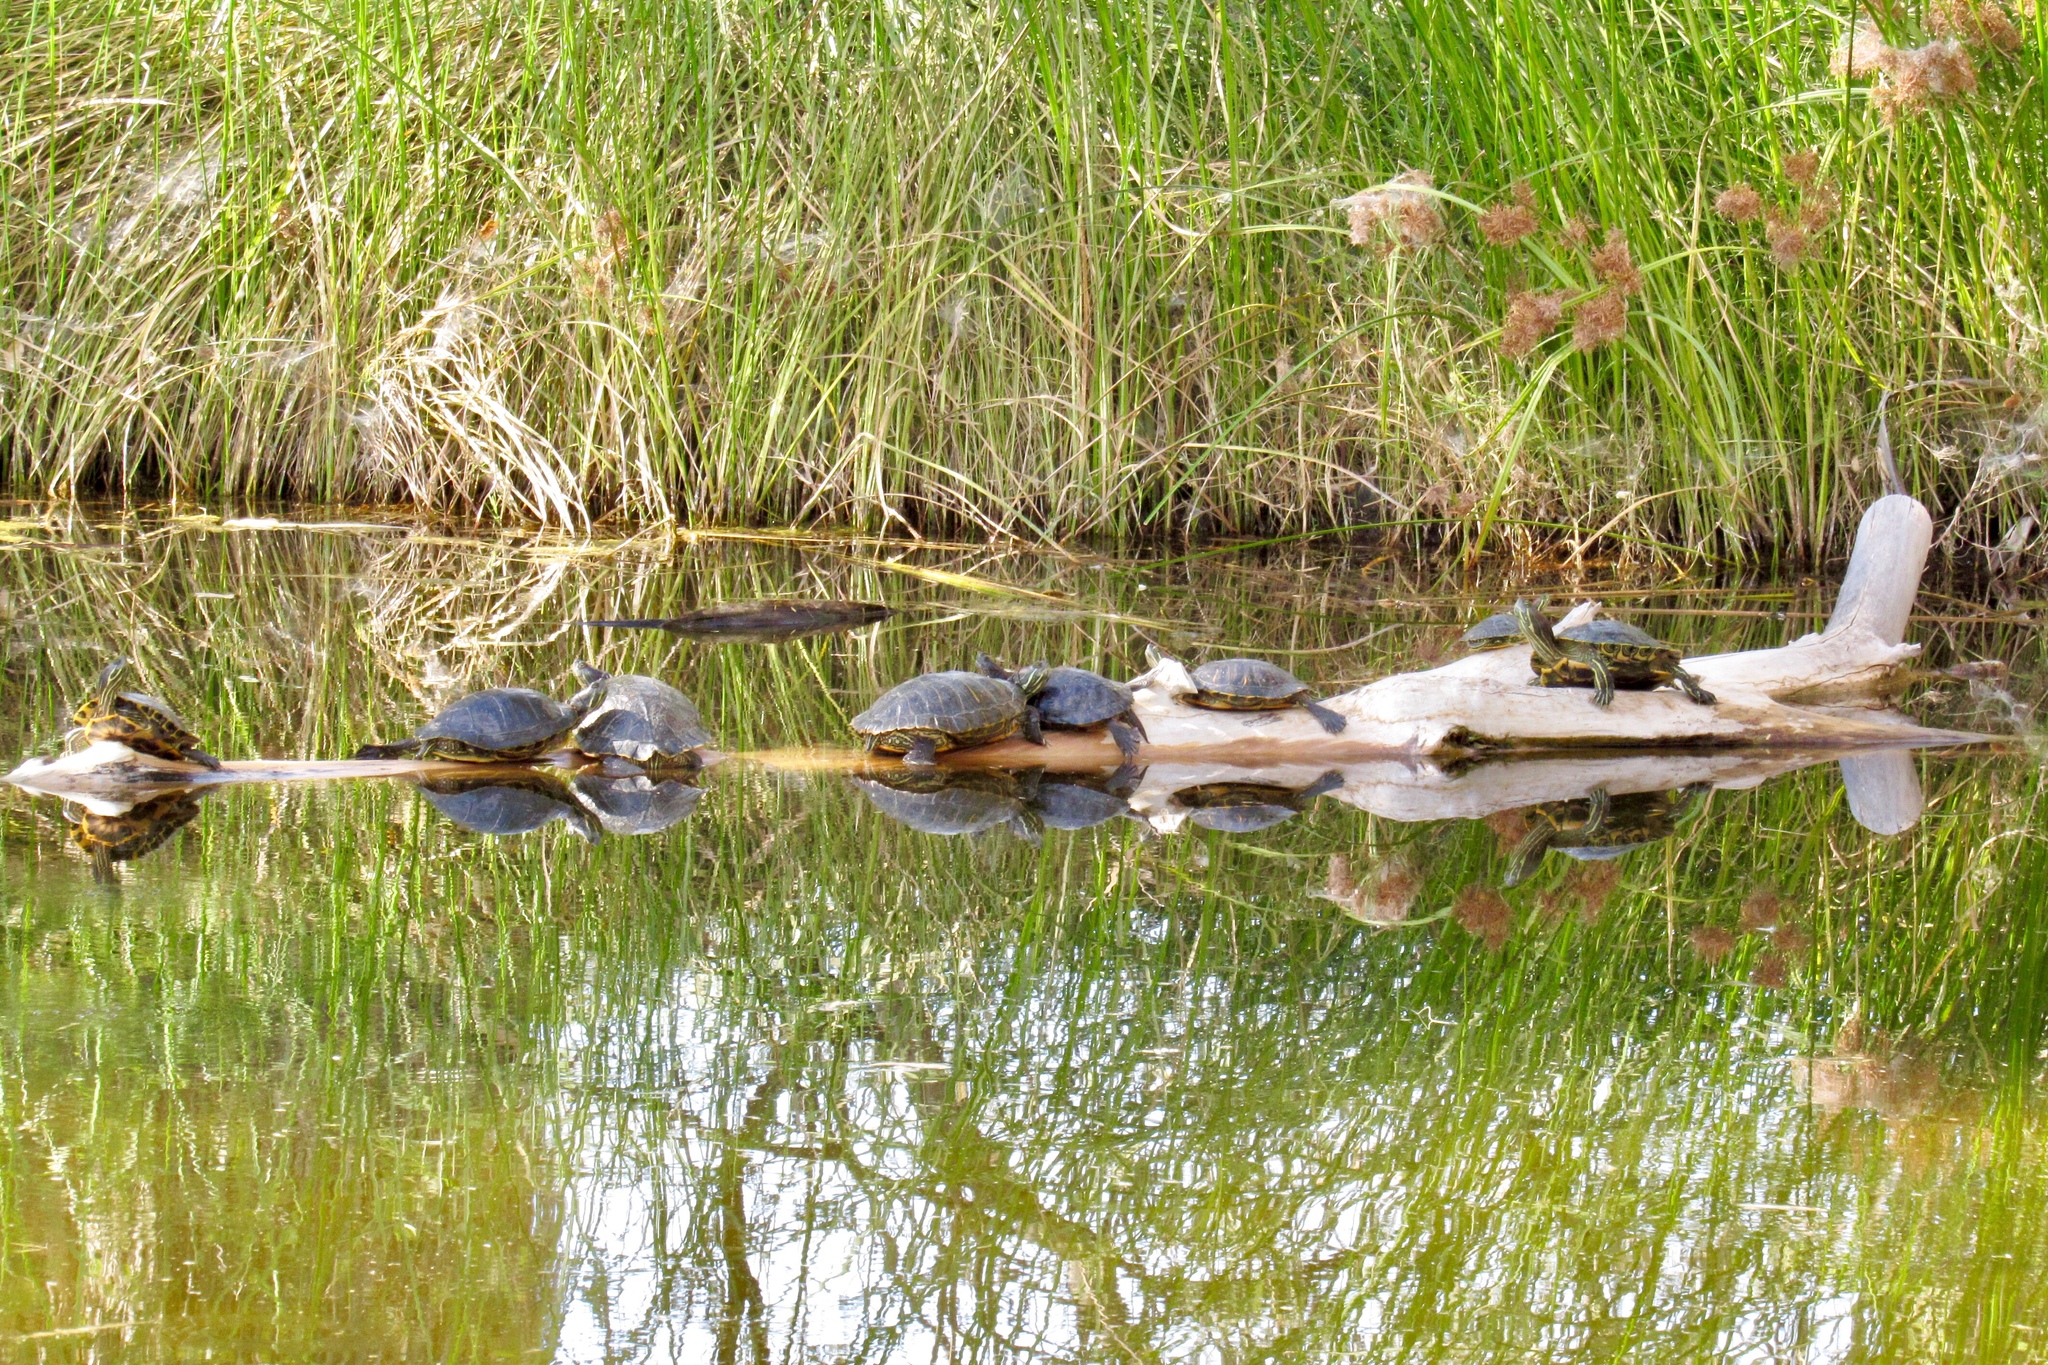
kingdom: Animalia
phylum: Chordata
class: Testudines
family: Emydidae
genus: Trachemys
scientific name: Trachemys scripta
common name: Slider
